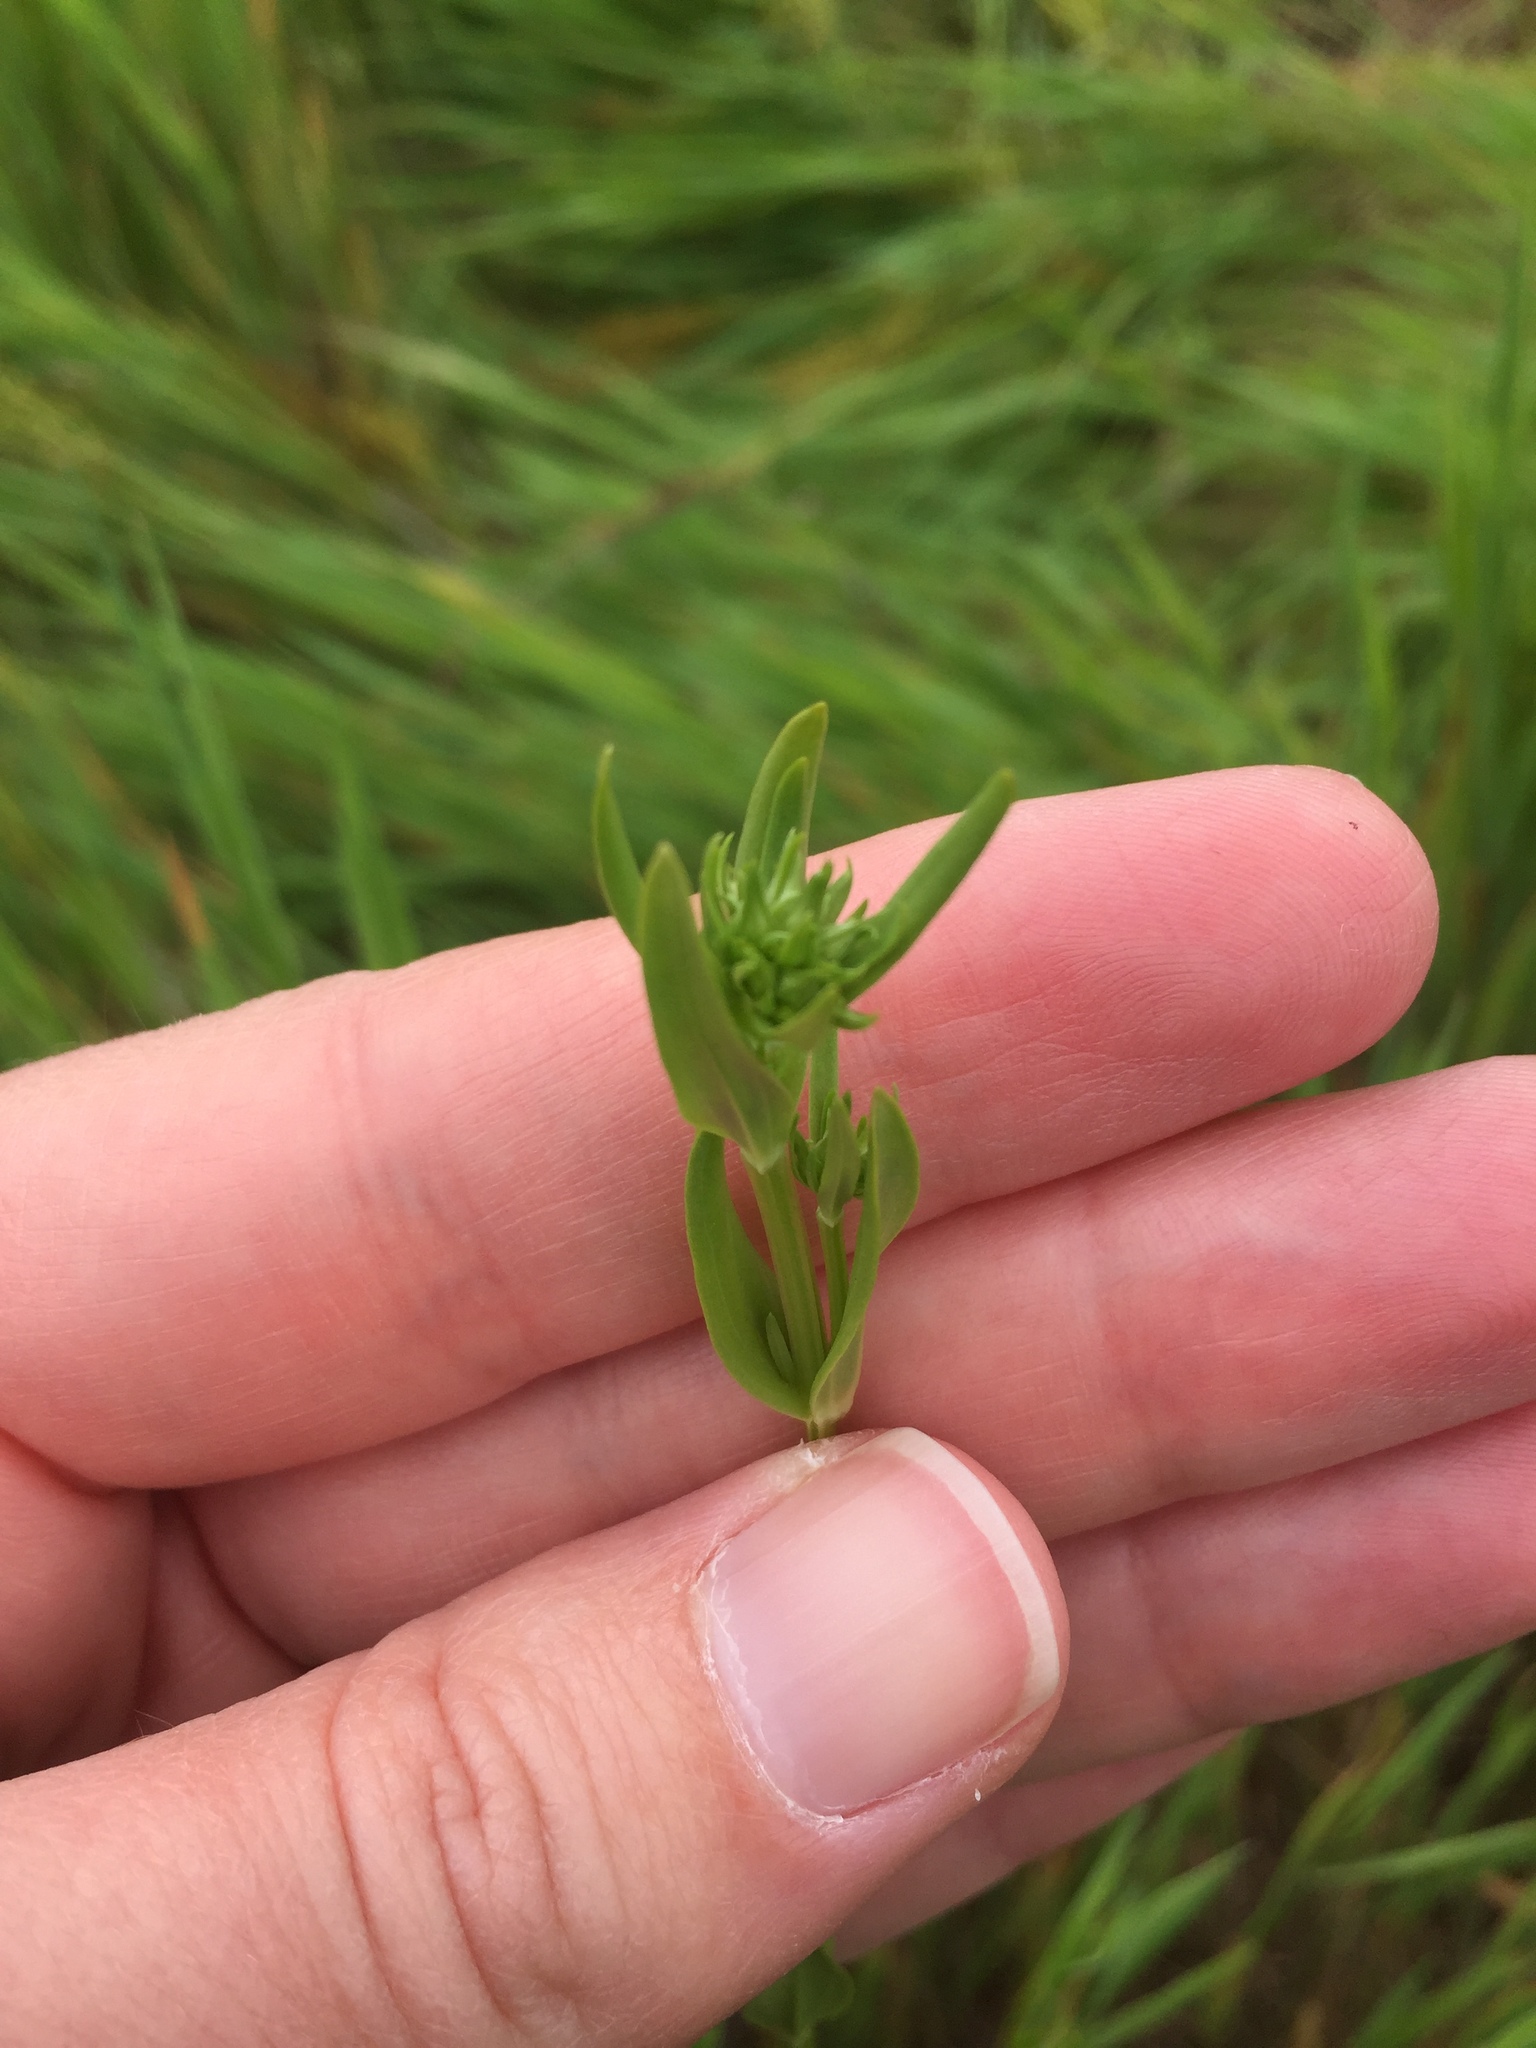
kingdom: Plantae
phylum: Tracheophyta
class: Magnoliopsida
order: Gentianales
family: Gentianaceae
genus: Centaurium
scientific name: Centaurium erythraea
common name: Common centaury
